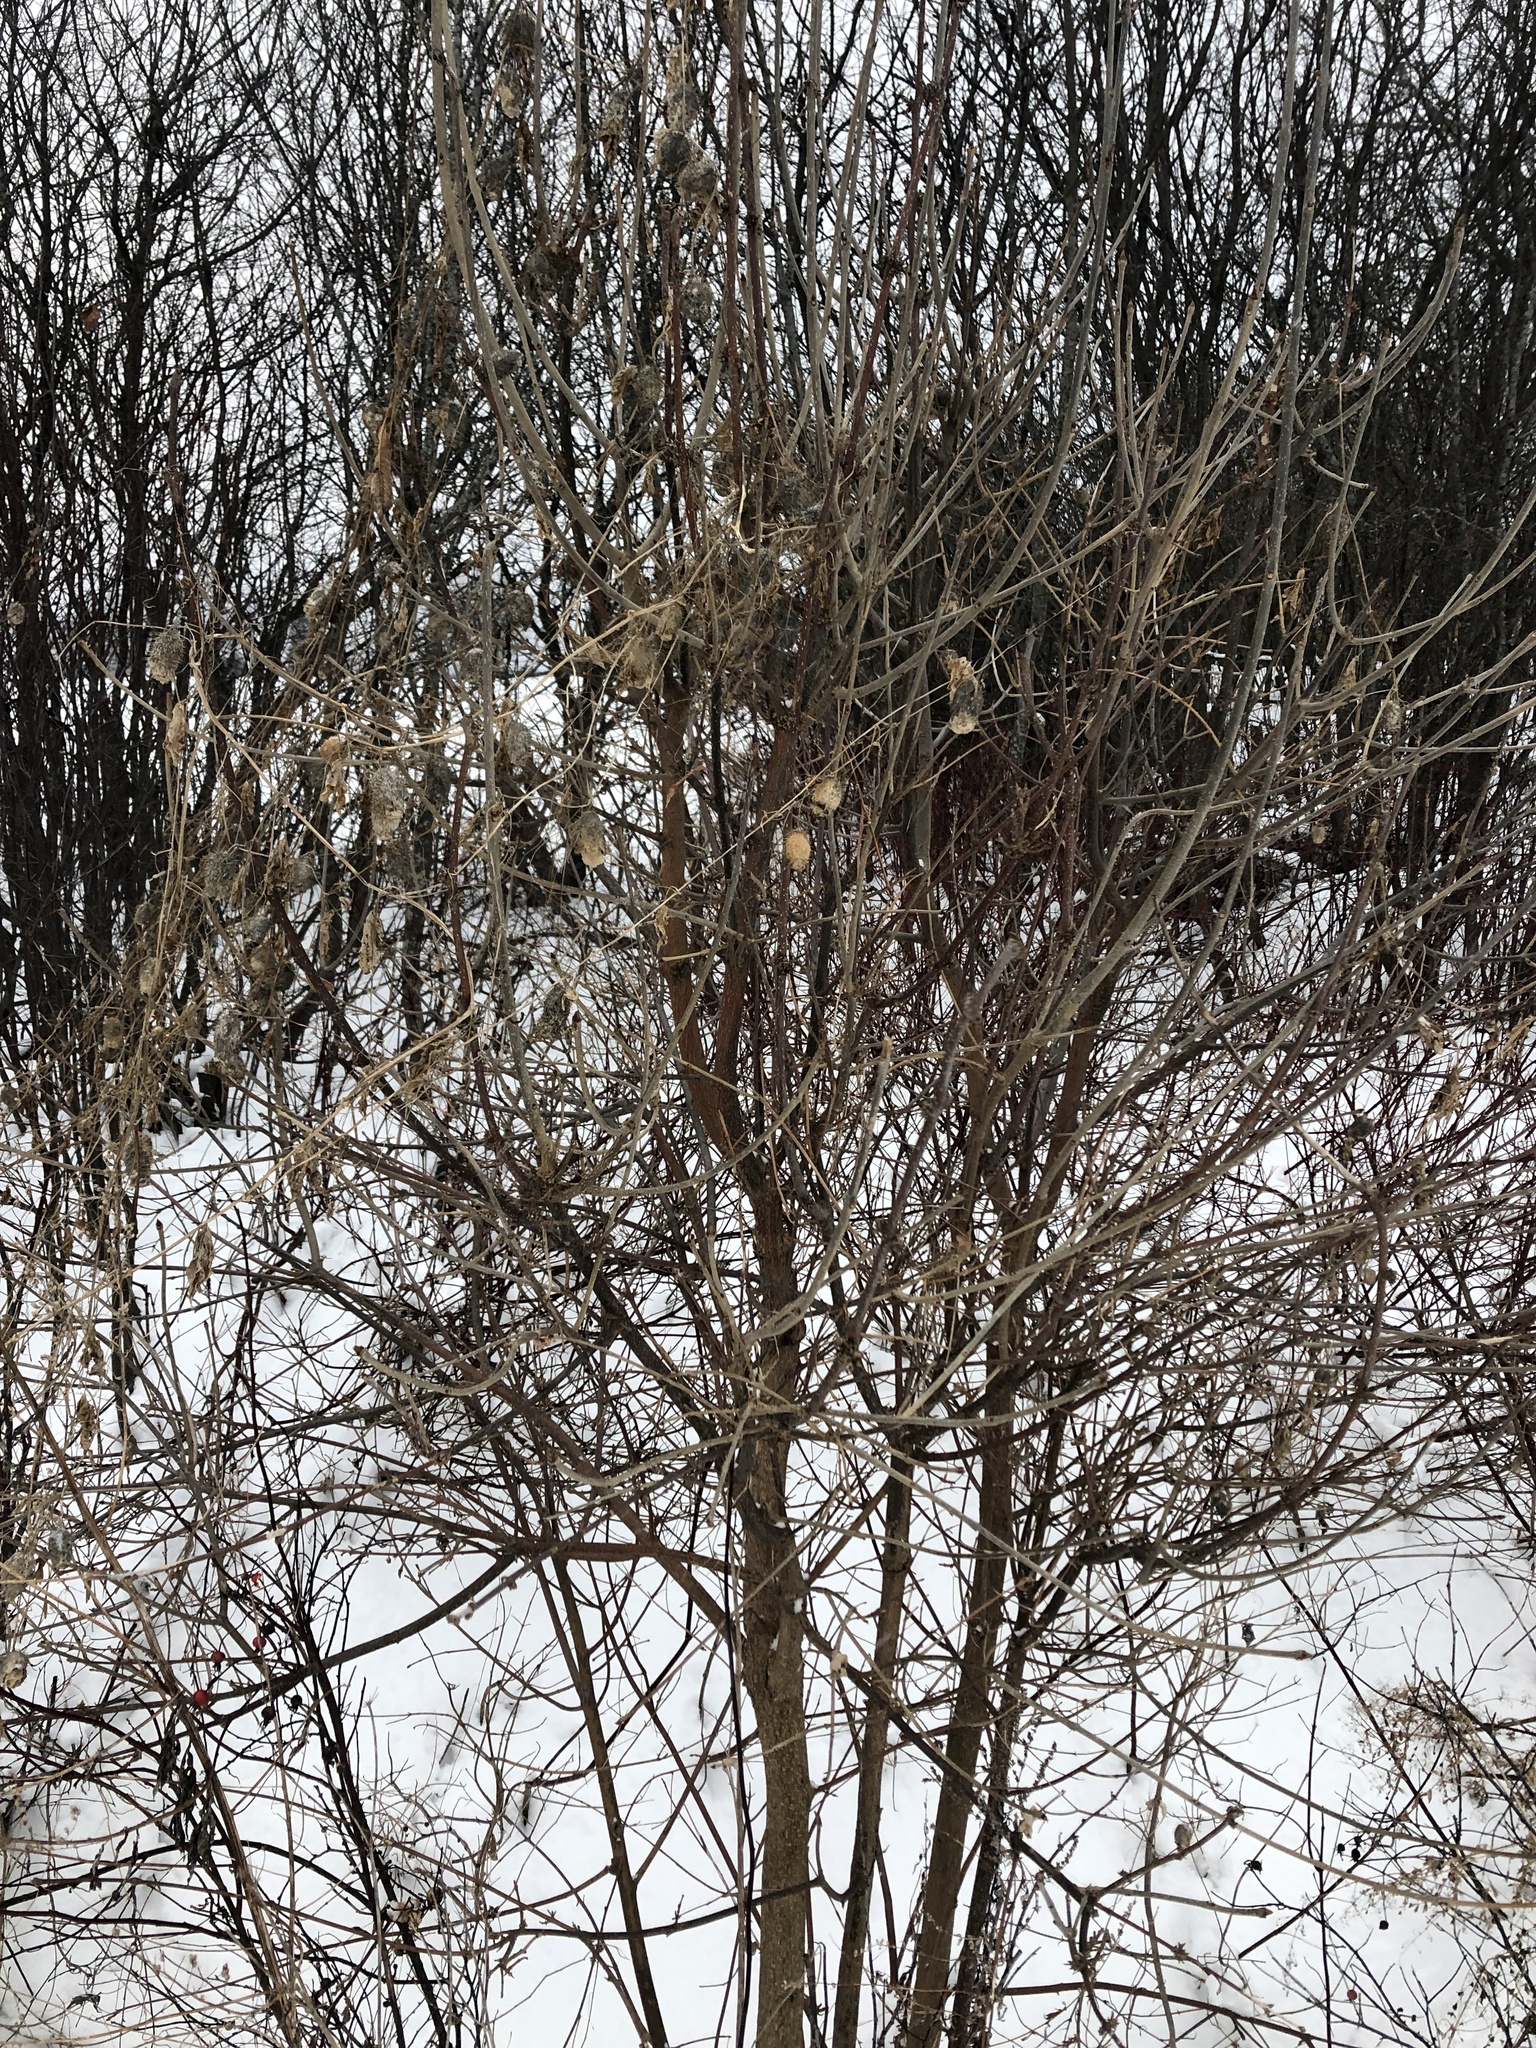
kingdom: Plantae
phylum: Tracheophyta
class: Magnoliopsida
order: Cucurbitales
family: Cucurbitaceae
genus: Echinocystis
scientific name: Echinocystis lobata
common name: Wild cucumber
